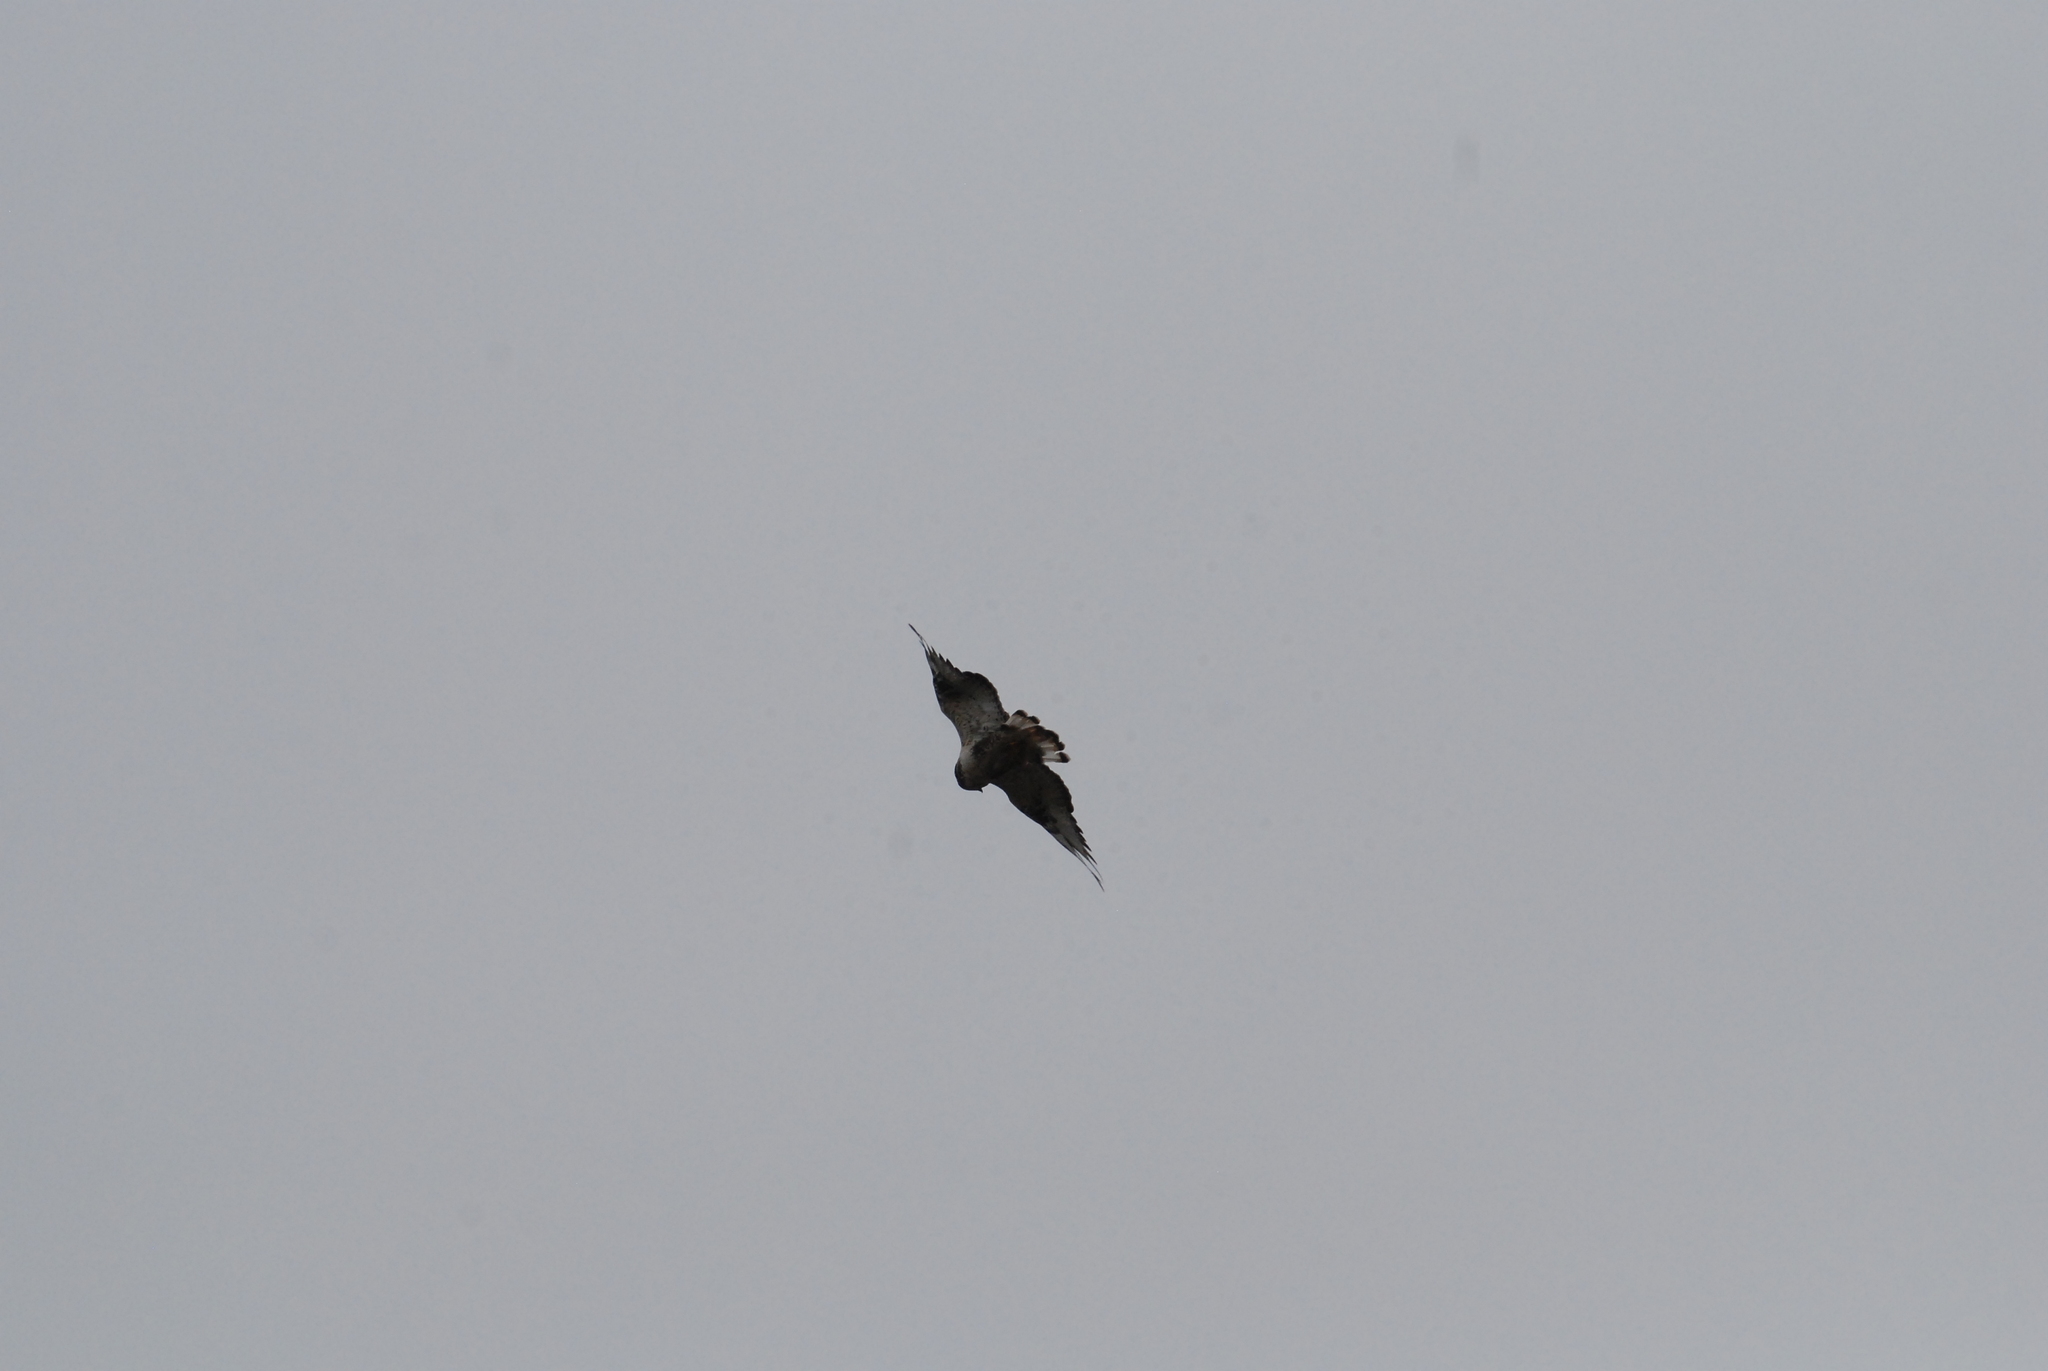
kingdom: Animalia
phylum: Chordata
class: Aves
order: Accipitriformes
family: Accipitridae
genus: Buteo
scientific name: Buteo lagopus
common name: Rough-legged buzzard
